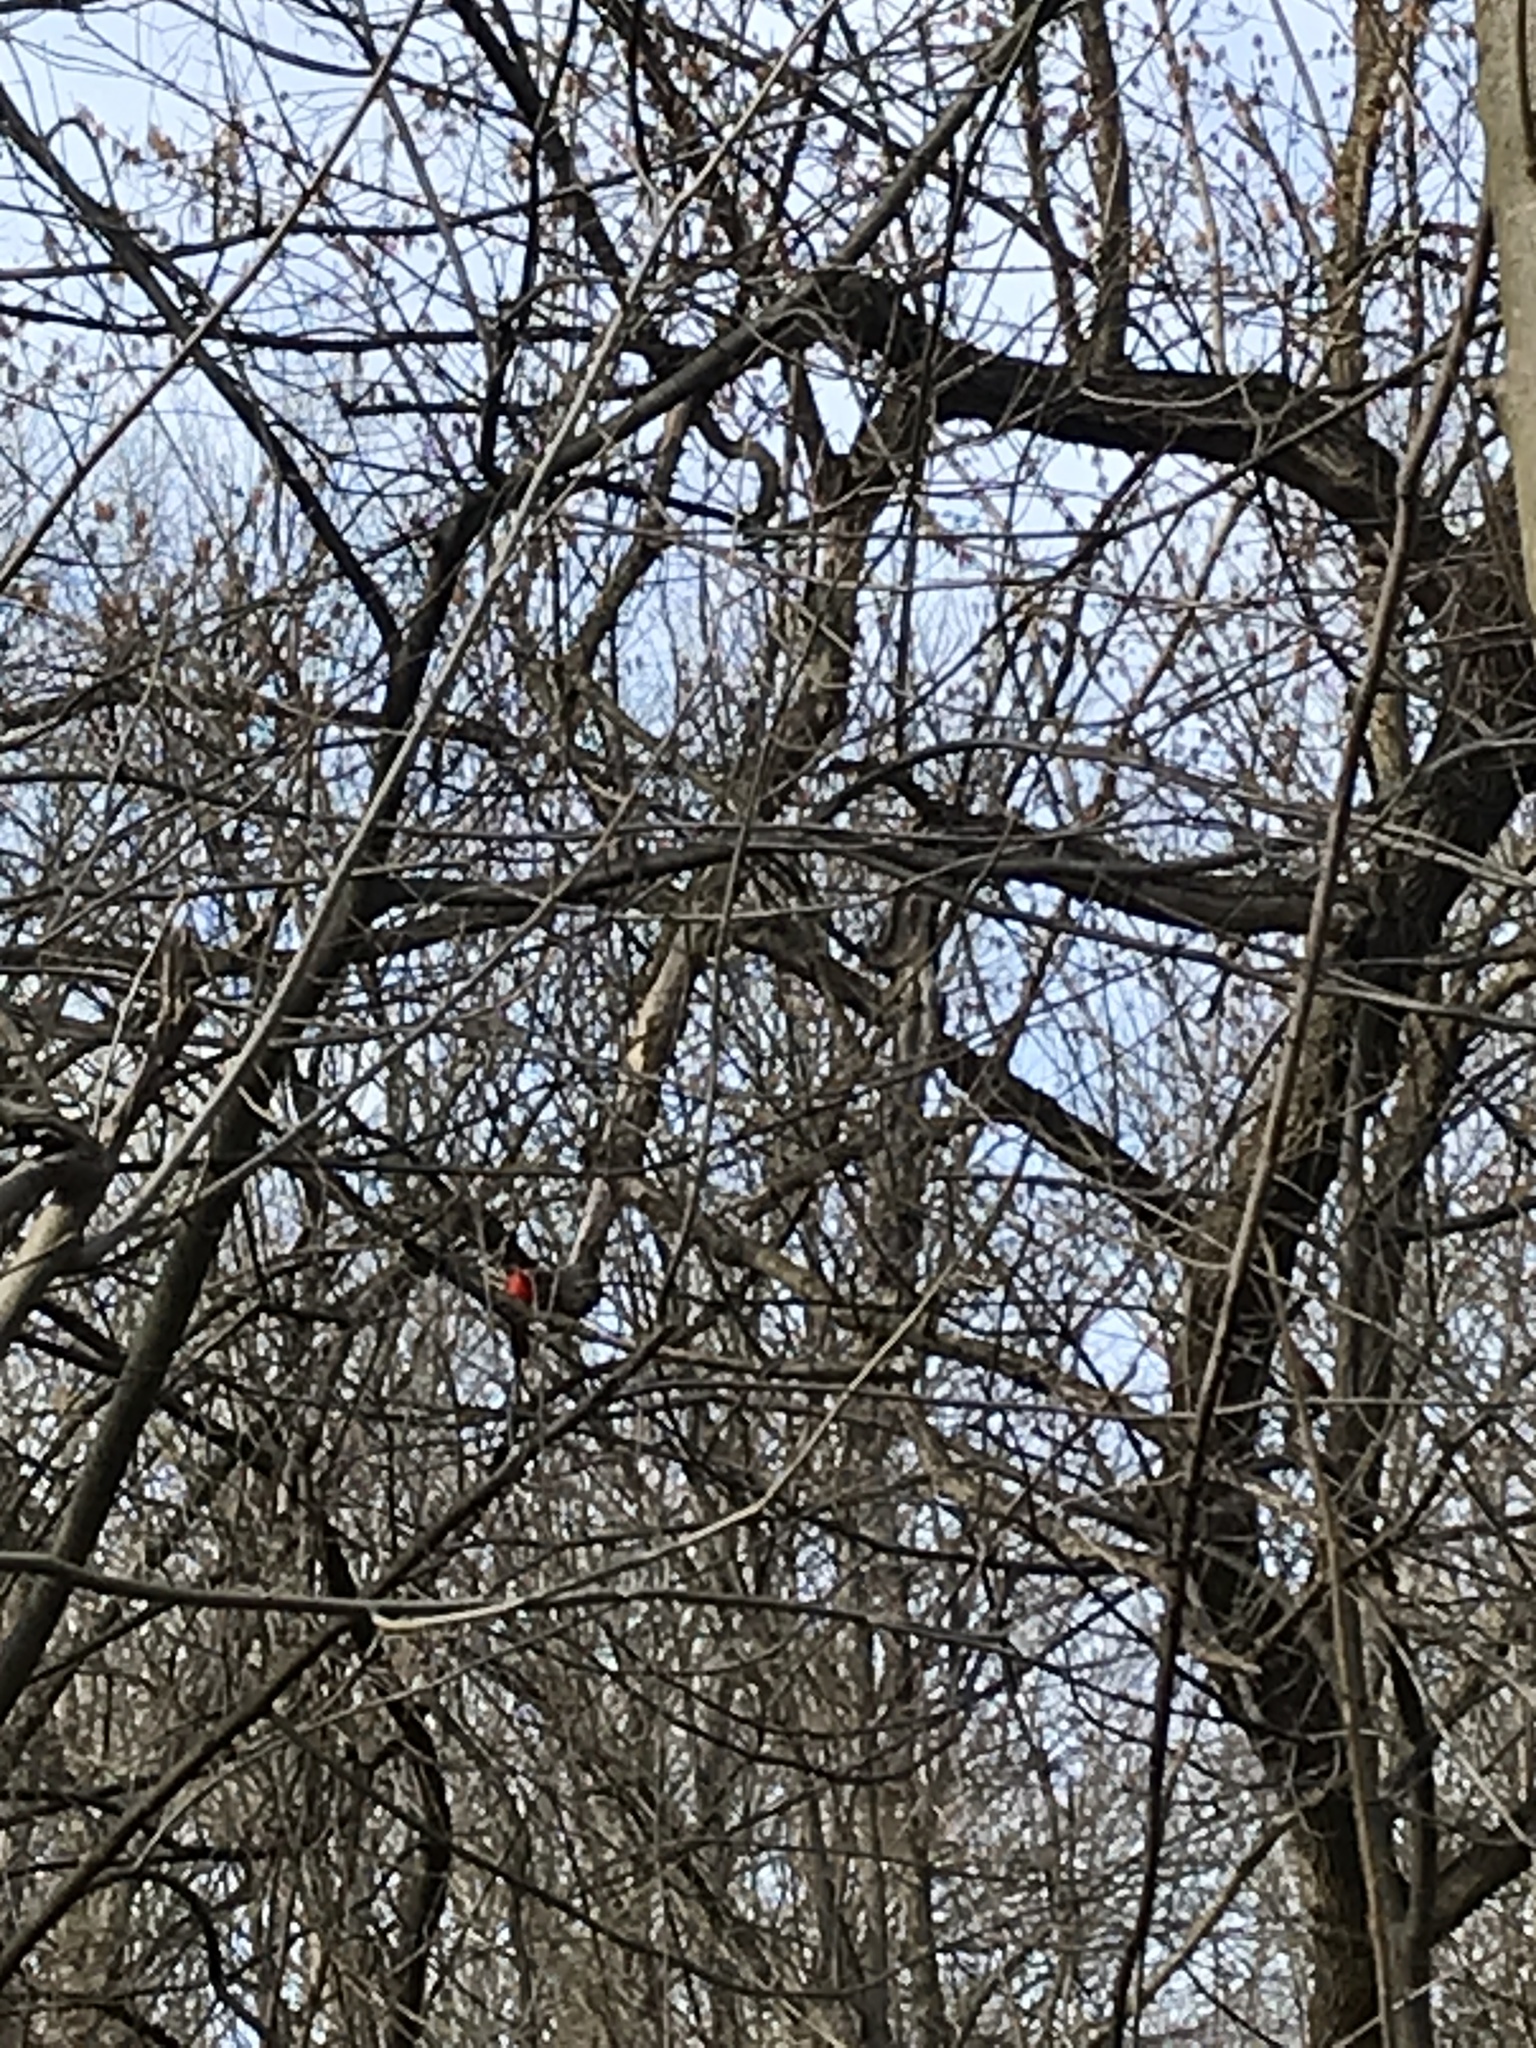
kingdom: Animalia
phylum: Chordata
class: Aves
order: Passeriformes
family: Cardinalidae
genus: Cardinalis
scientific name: Cardinalis cardinalis
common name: Northern cardinal
